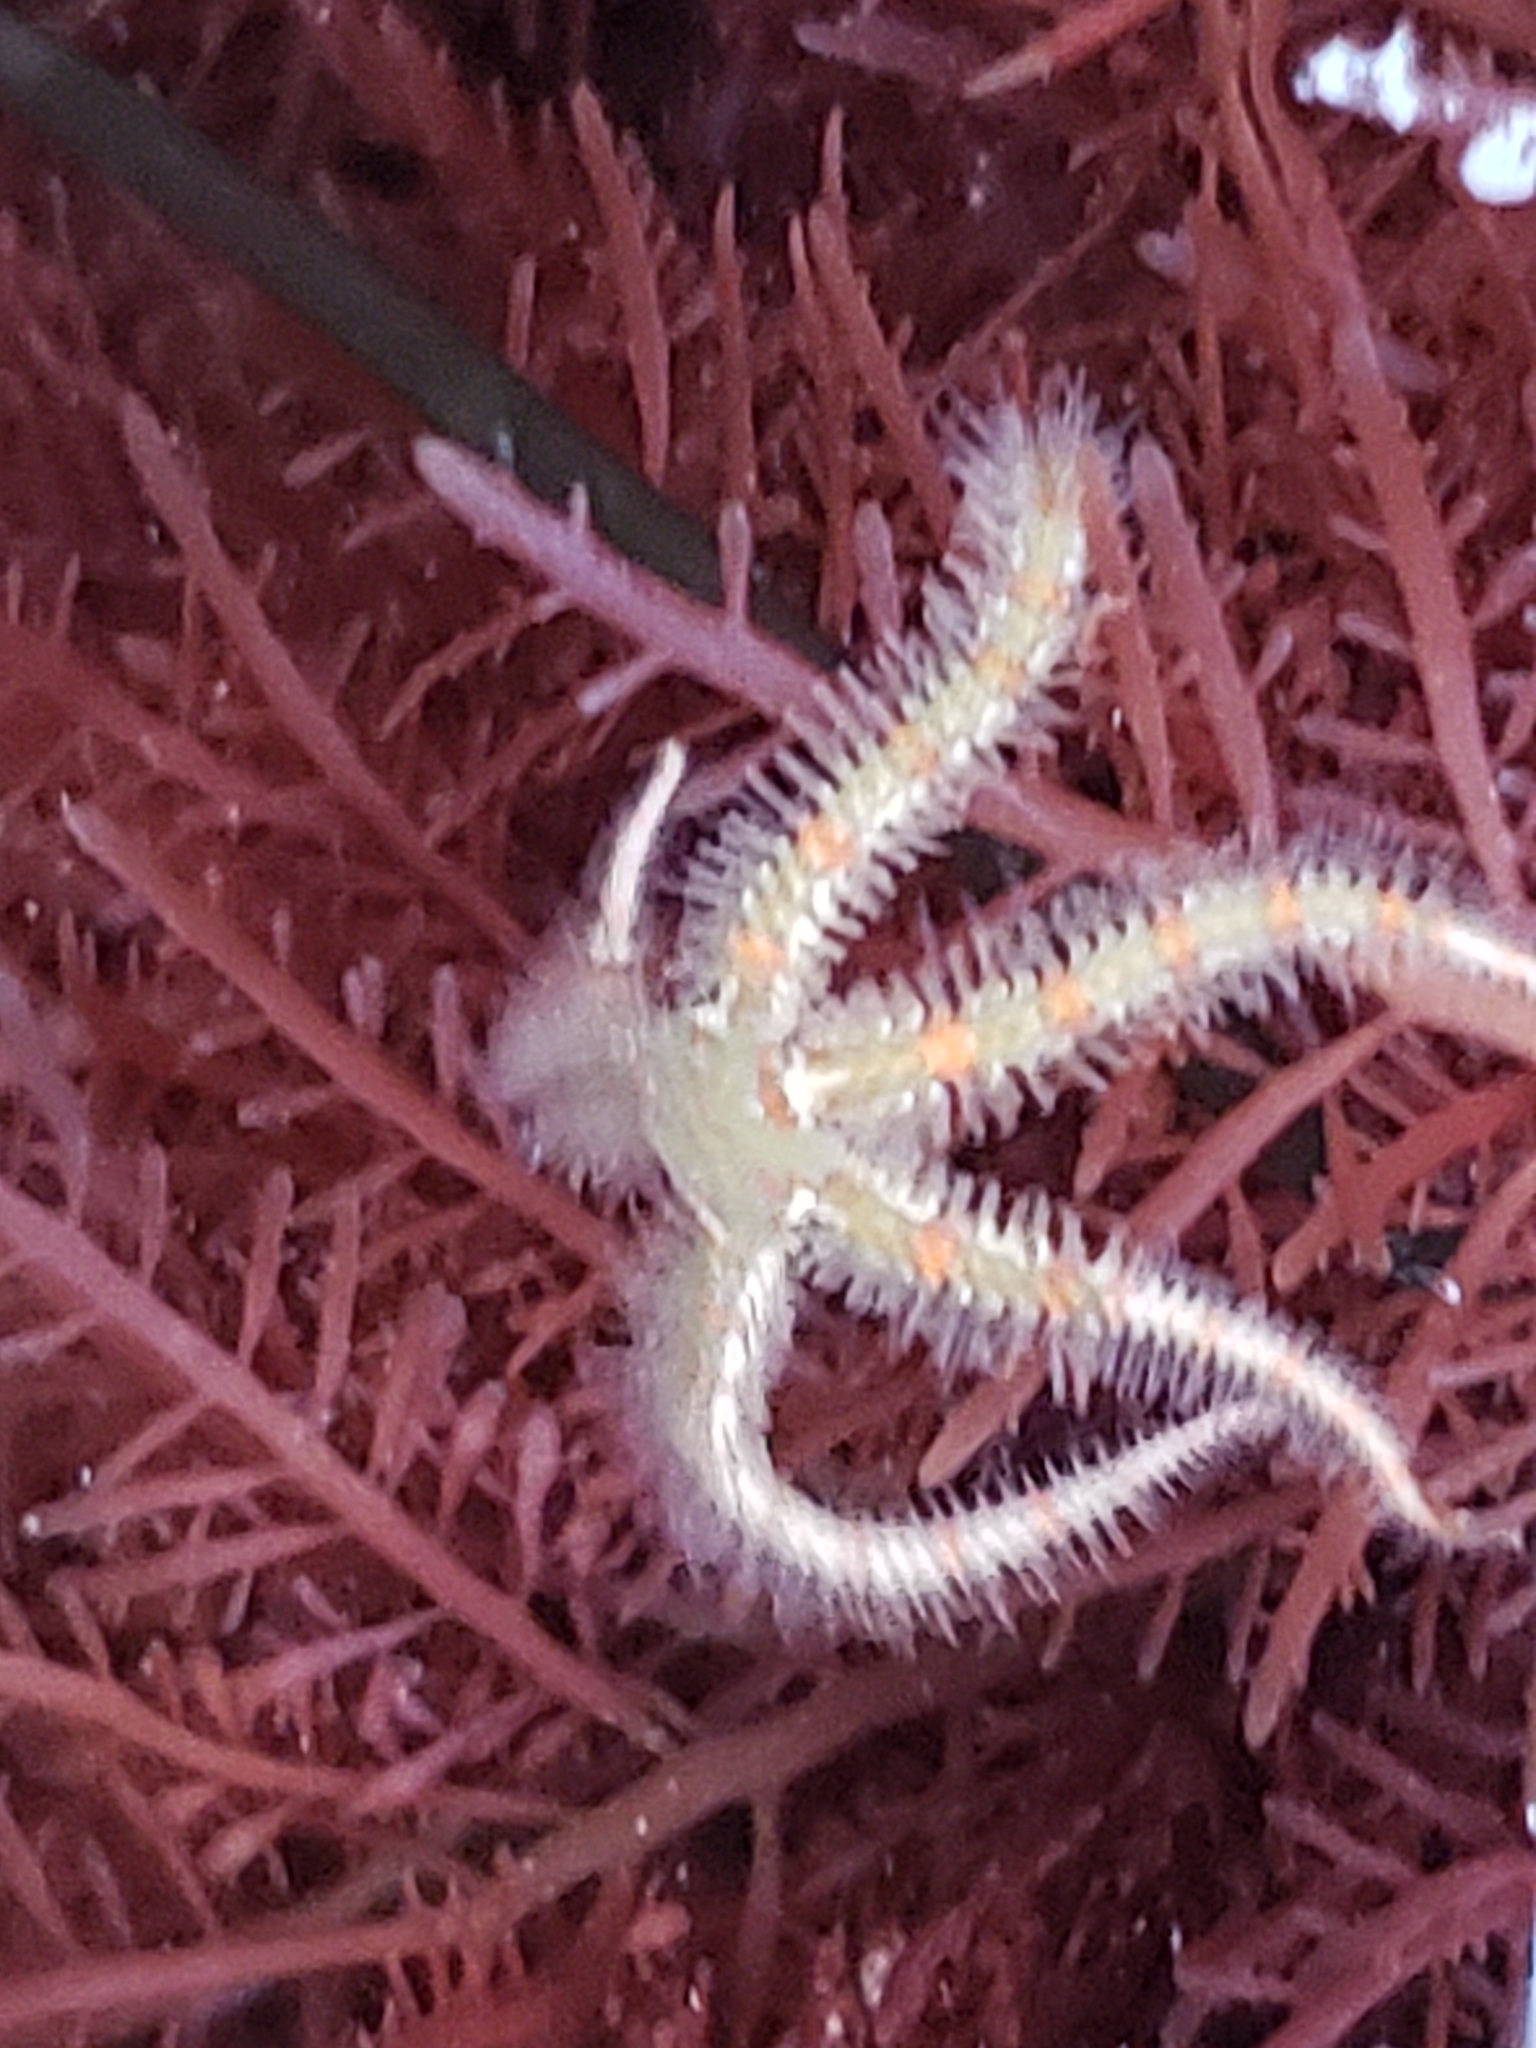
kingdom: Animalia
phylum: Echinodermata
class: Ophiuroidea
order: Amphilepidida
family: Ophiotrichidae
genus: Ophiothrix
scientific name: Ophiothrix spiculata
